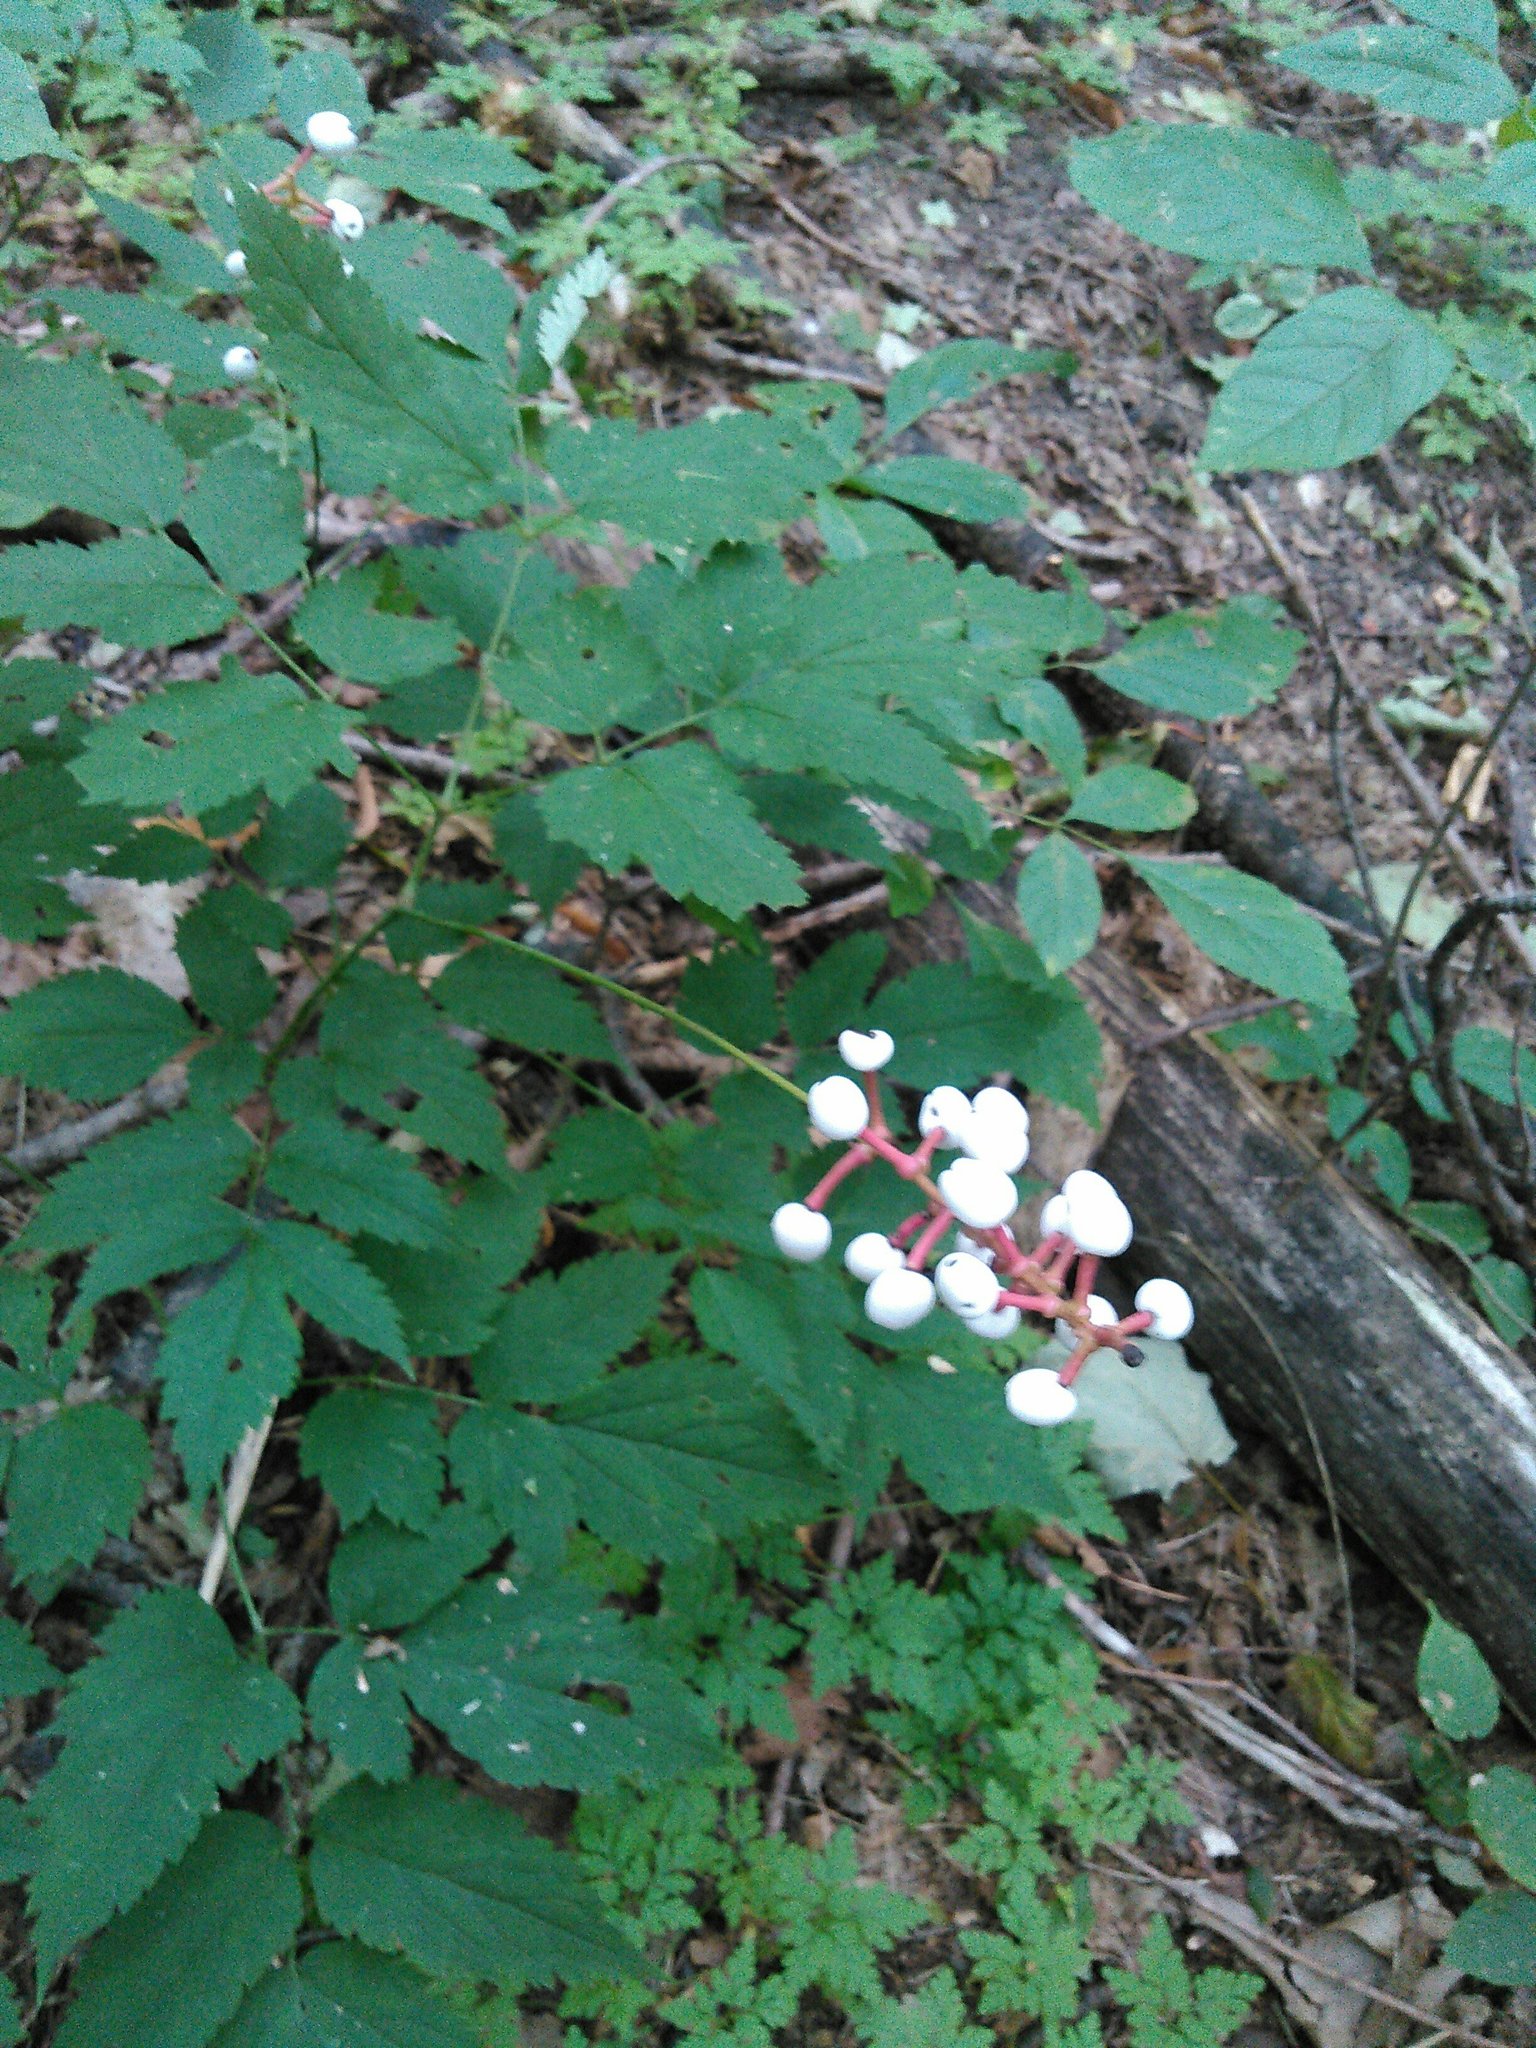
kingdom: Plantae
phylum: Tracheophyta
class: Magnoliopsida
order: Ranunculales
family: Ranunculaceae
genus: Actaea
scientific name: Actaea pachypoda
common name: Doll's-eyes
